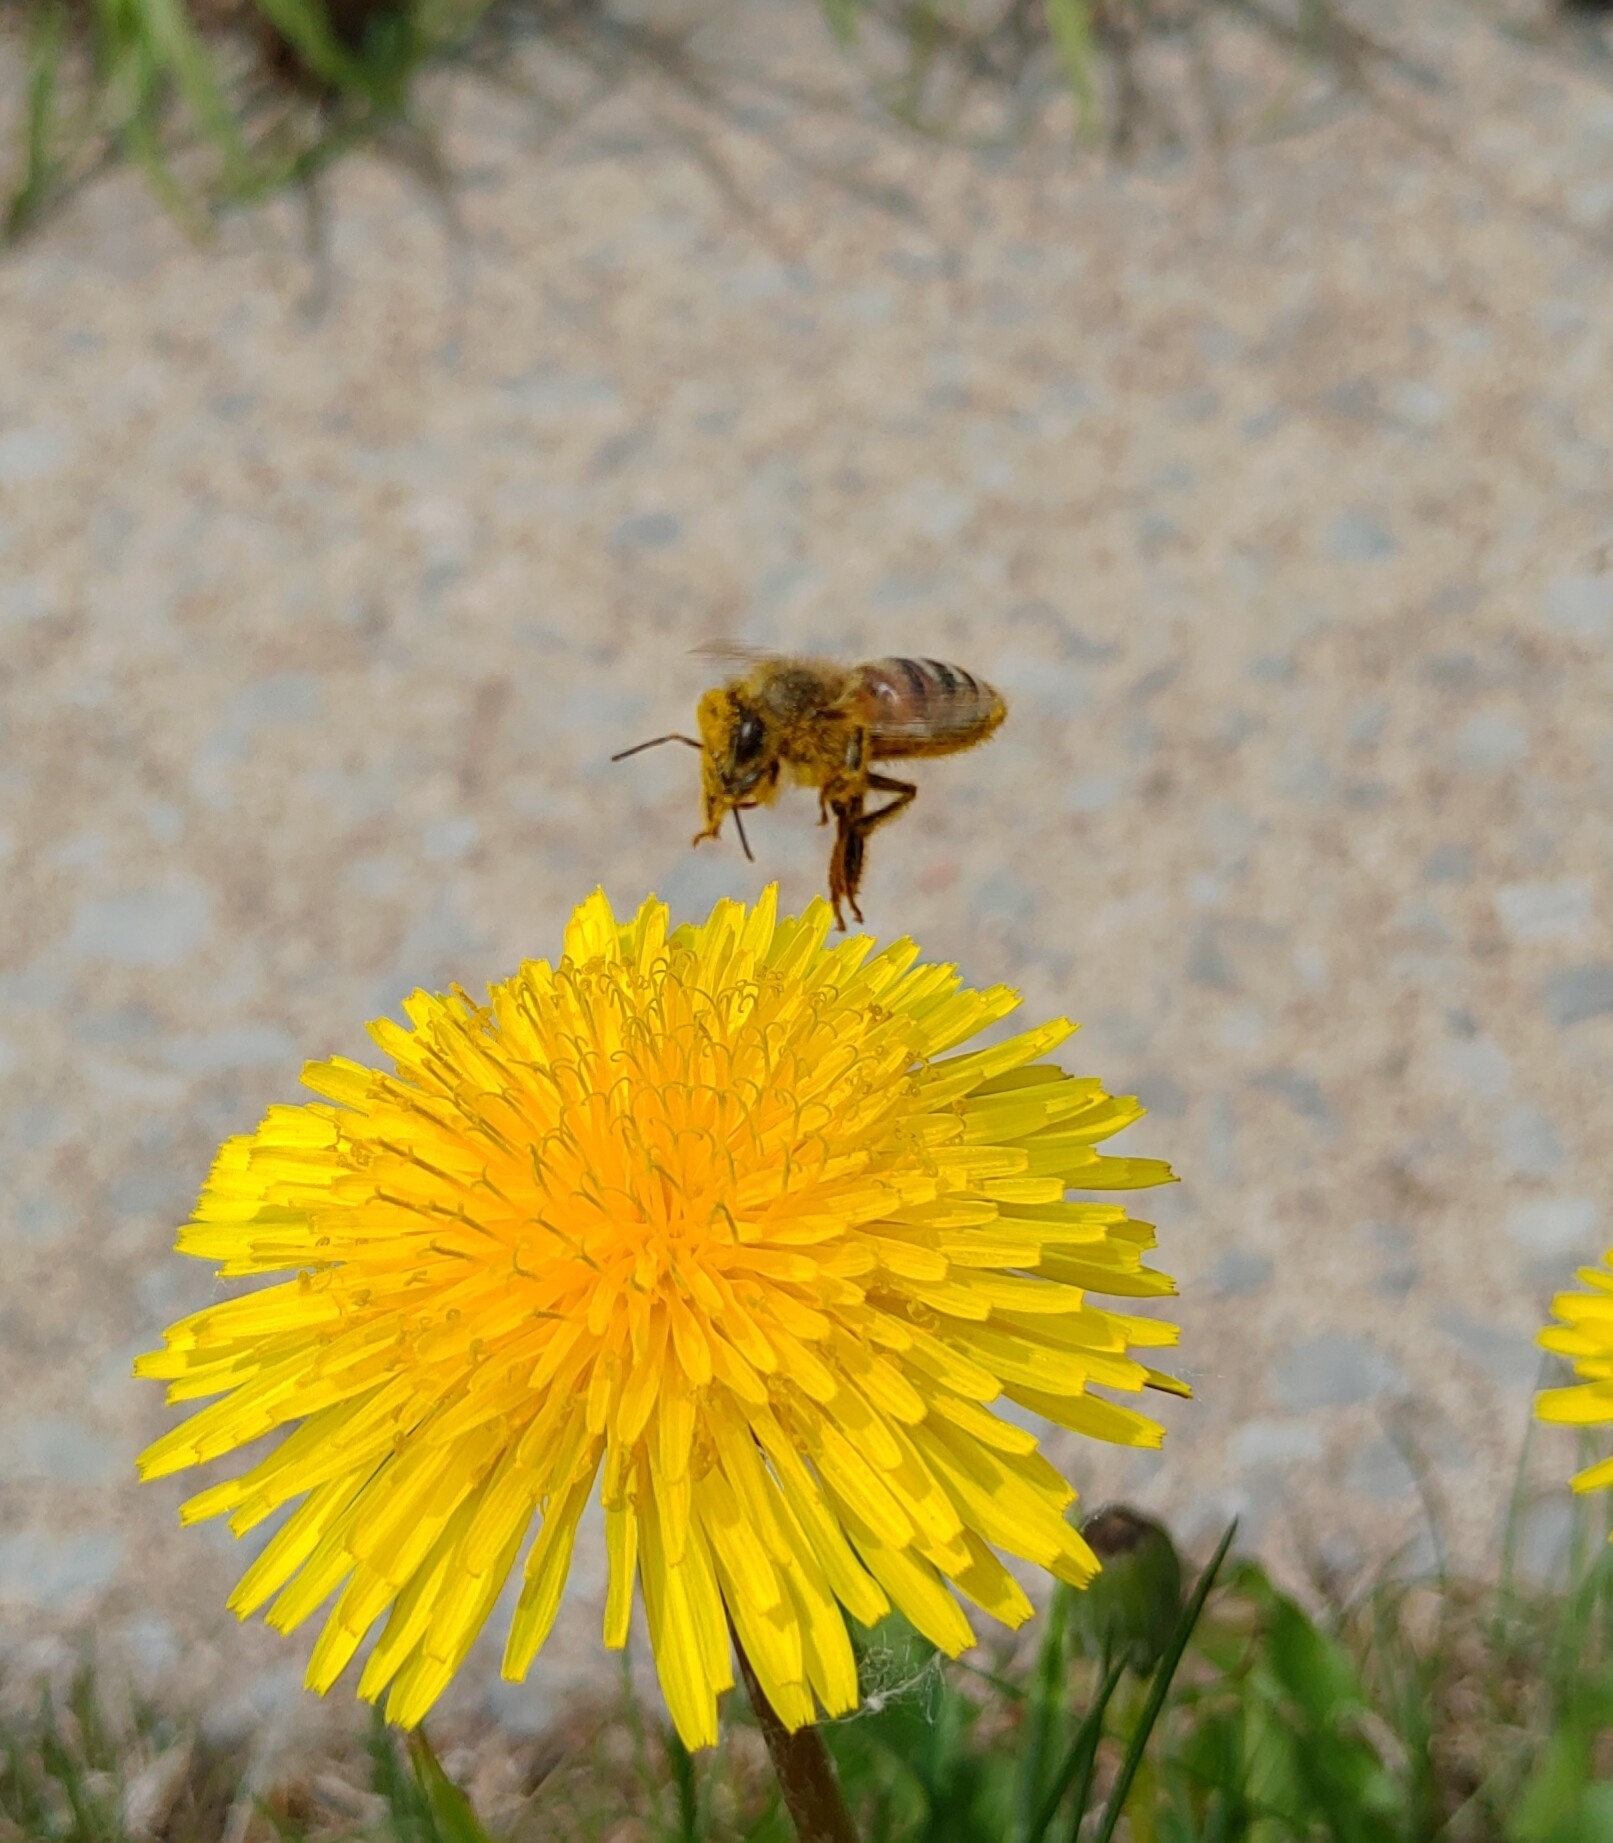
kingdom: Animalia
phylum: Arthropoda
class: Insecta
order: Hymenoptera
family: Apidae
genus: Apis
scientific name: Apis mellifera
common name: Honey bee
